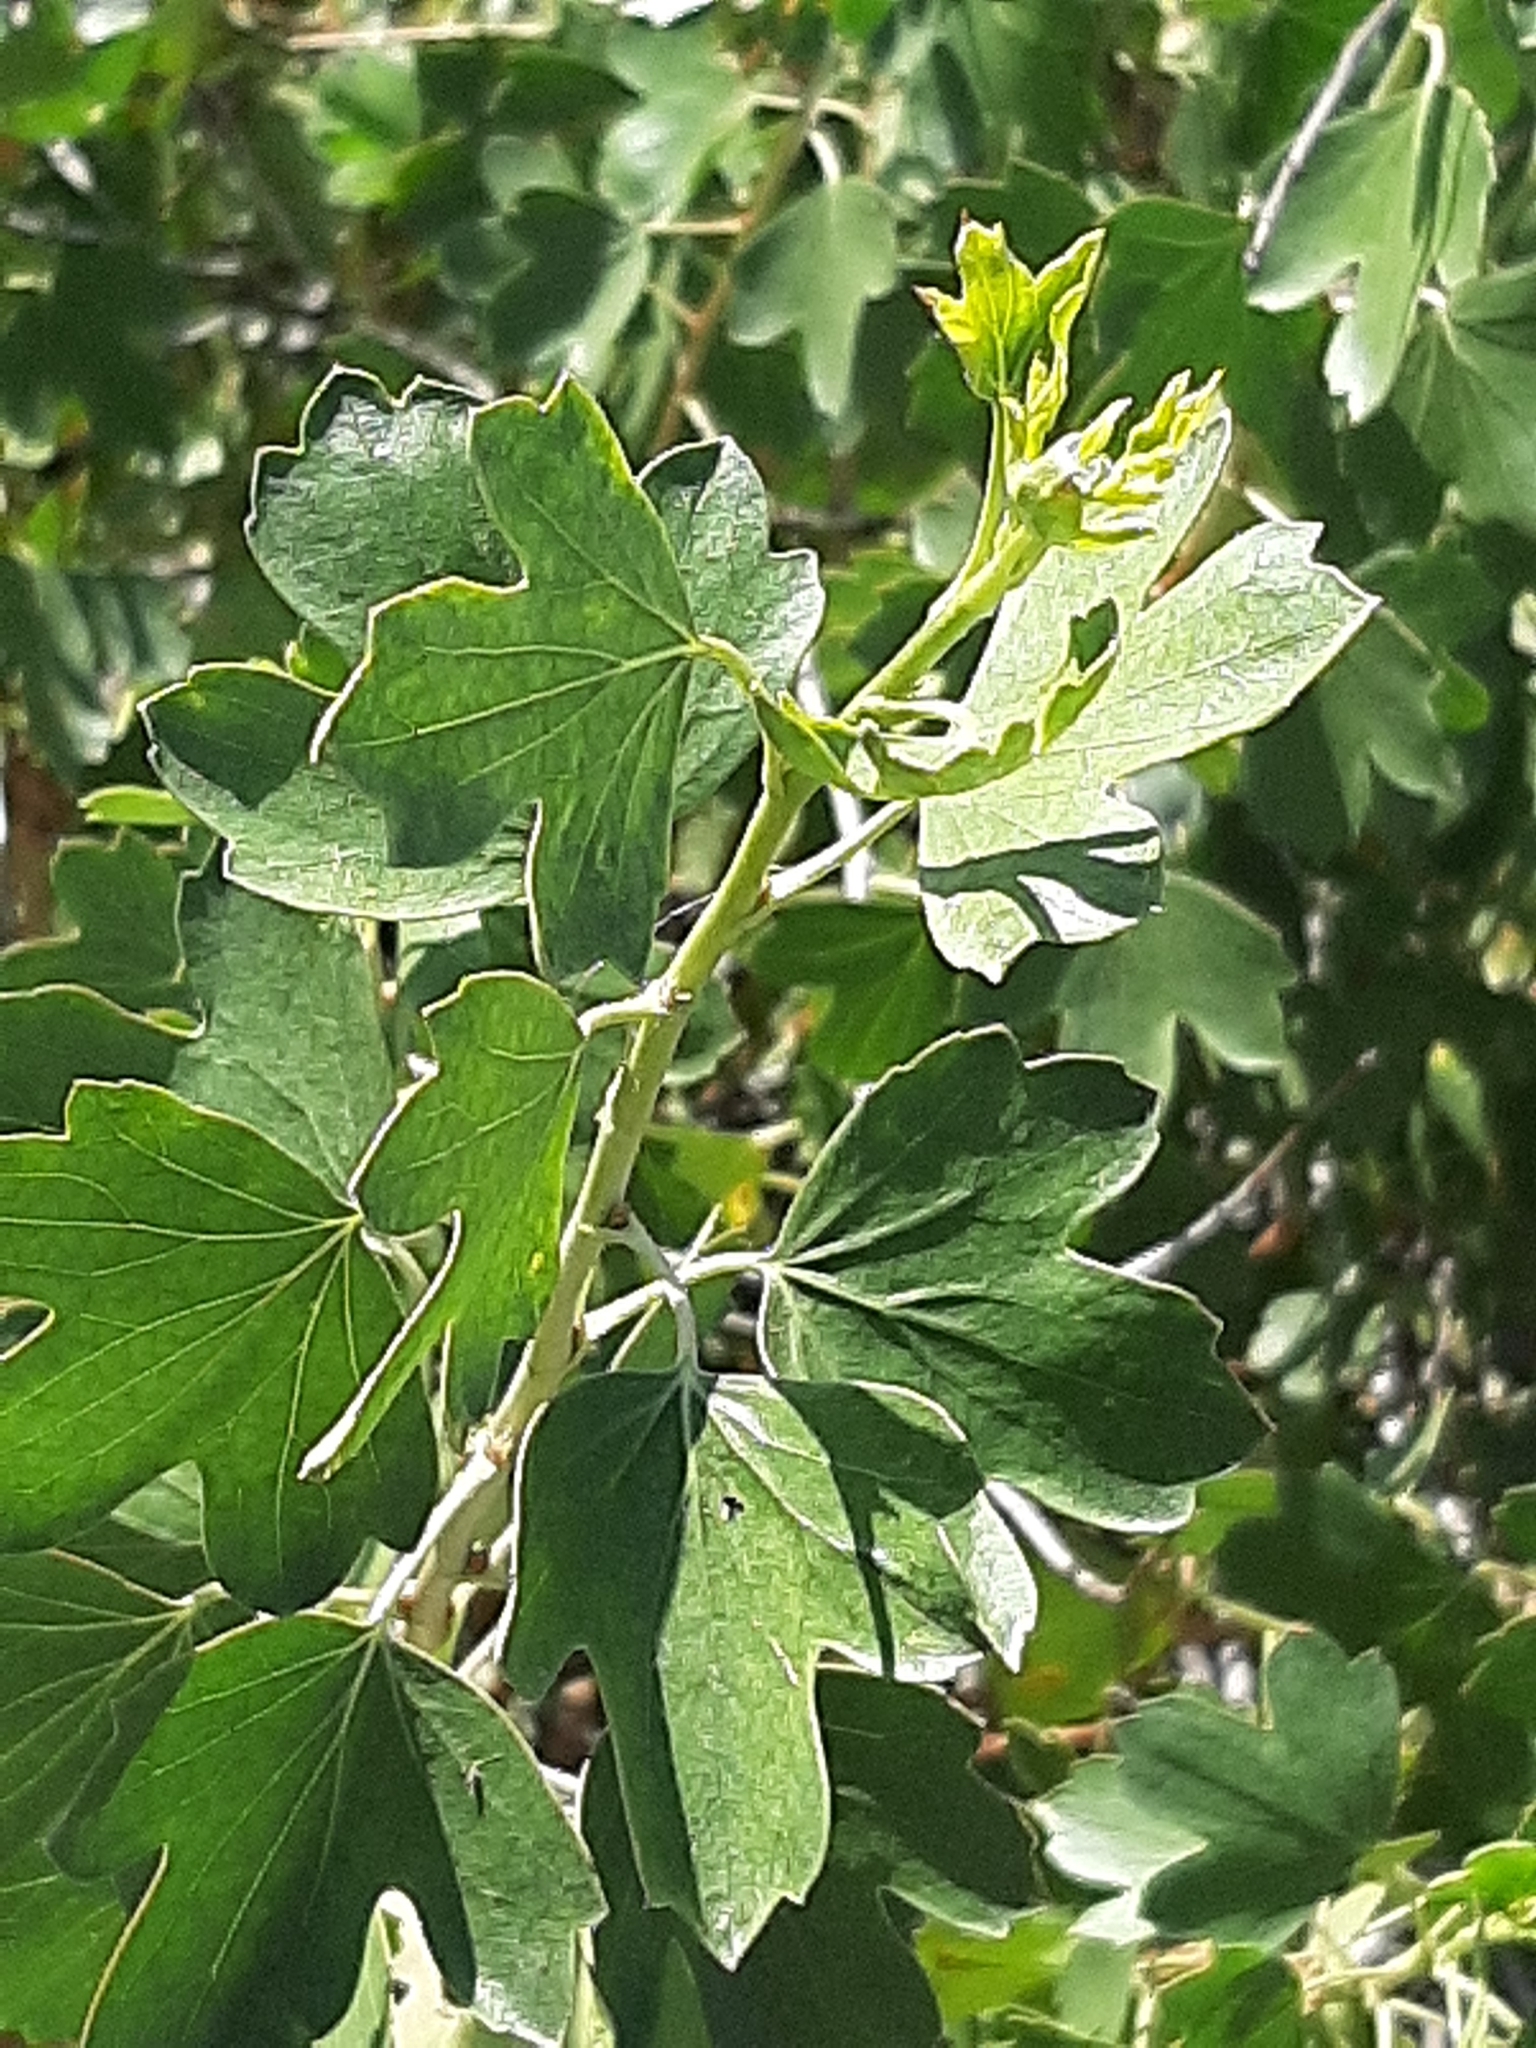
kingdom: Plantae
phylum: Tracheophyta
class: Magnoliopsida
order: Saxifragales
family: Grossulariaceae
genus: Ribes
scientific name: Ribes aureum
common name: Golden currant
